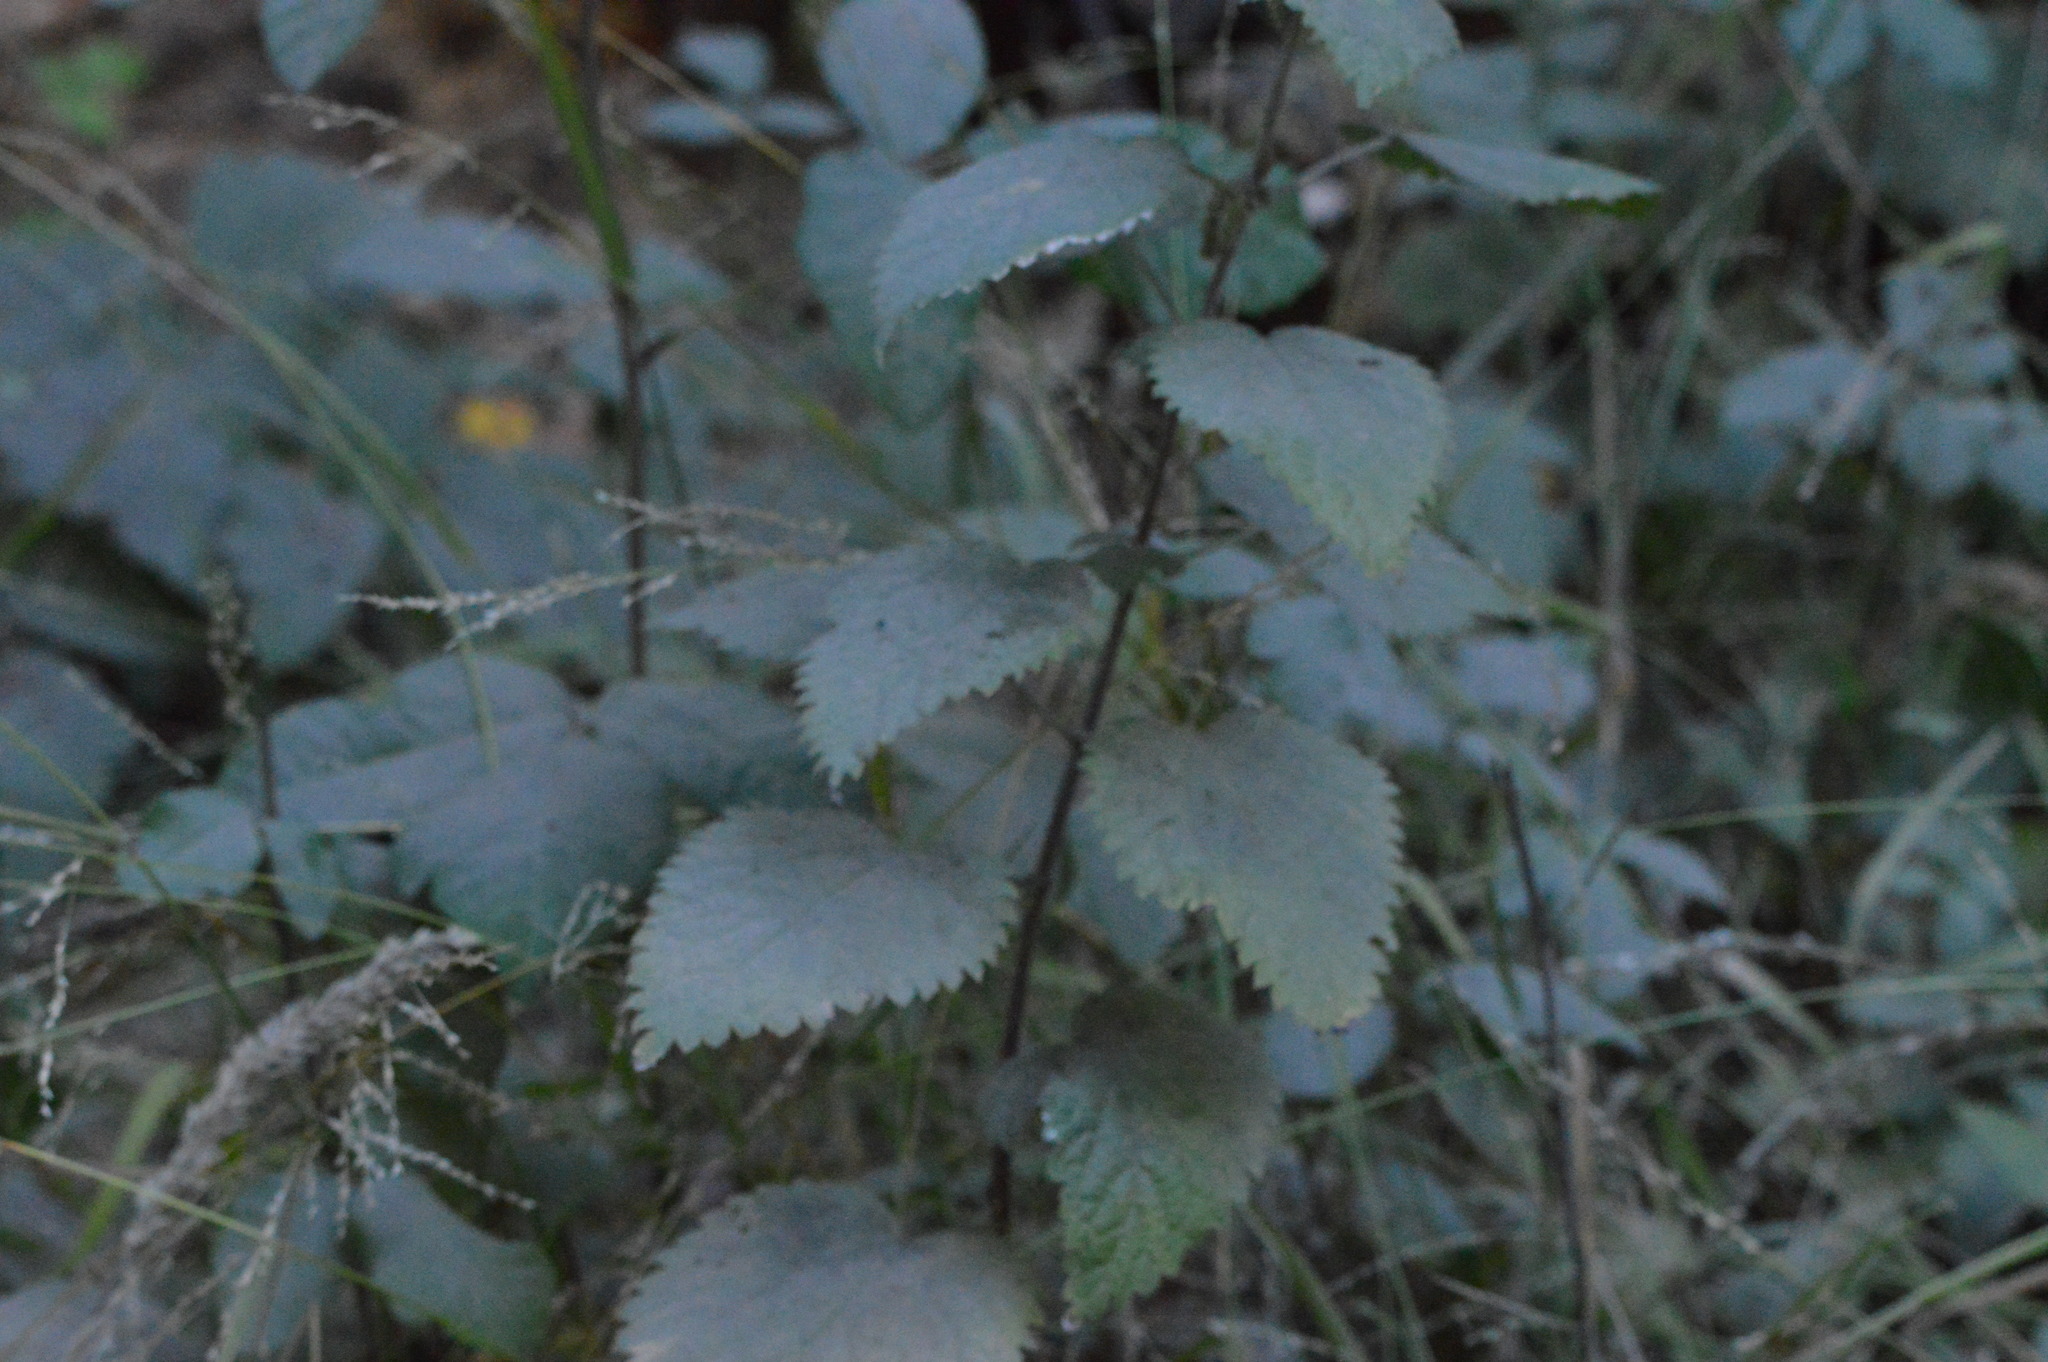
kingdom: Plantae
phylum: Tracheophyta
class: Magnoliopsida
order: Rosales
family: Urticaceae
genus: Urtica
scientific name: Urtica dioica
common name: Common nettle
